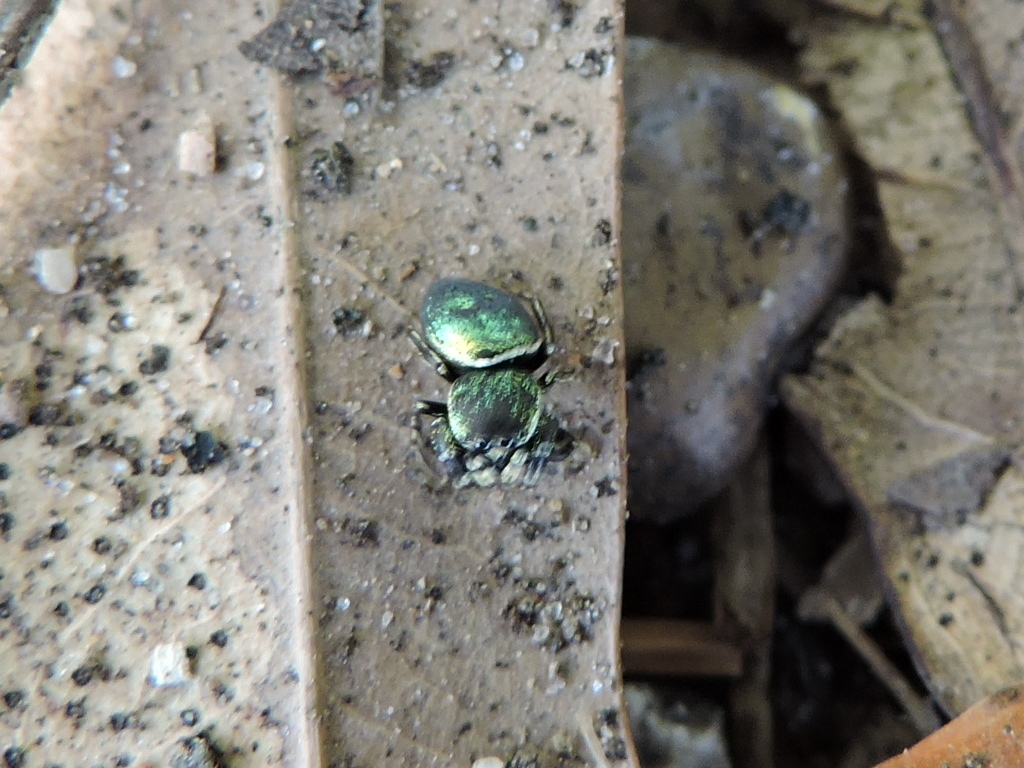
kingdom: Animalia
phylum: Arthropoda
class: Arachnida
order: Araneae
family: Salticidae
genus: Sassacus
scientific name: Sassacus papenhoei
